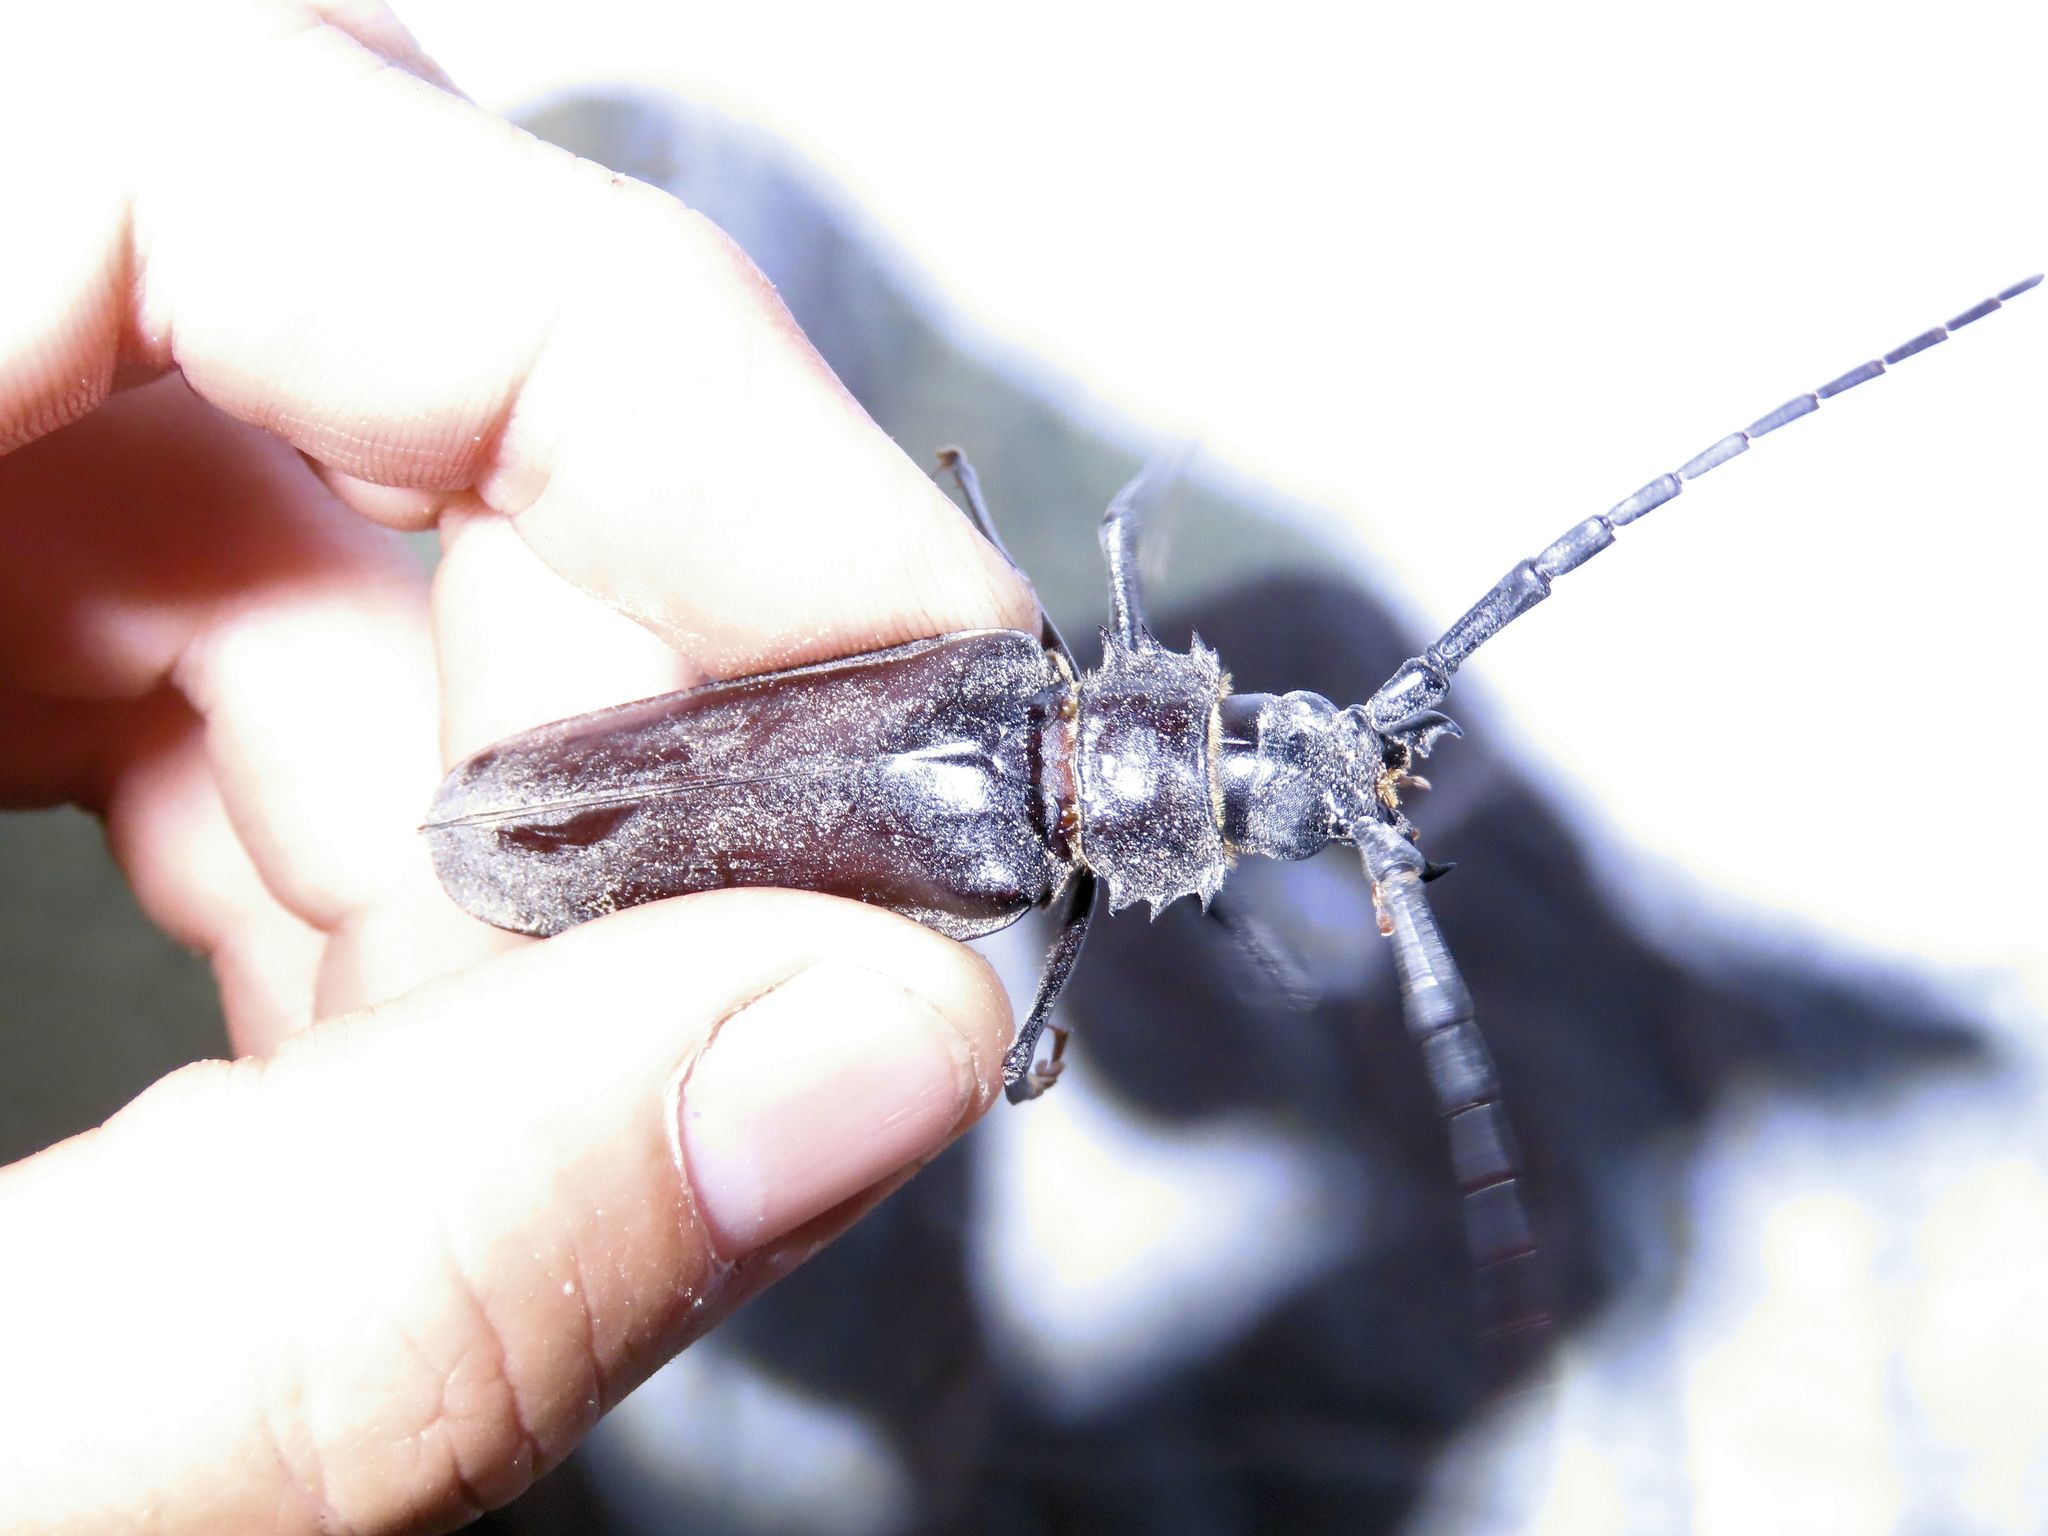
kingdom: Animalia
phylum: Arthropoda
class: Insecta
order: Coleoptera
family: Cerambycidae
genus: Derobrachus
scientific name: Derobrachus hovorei
